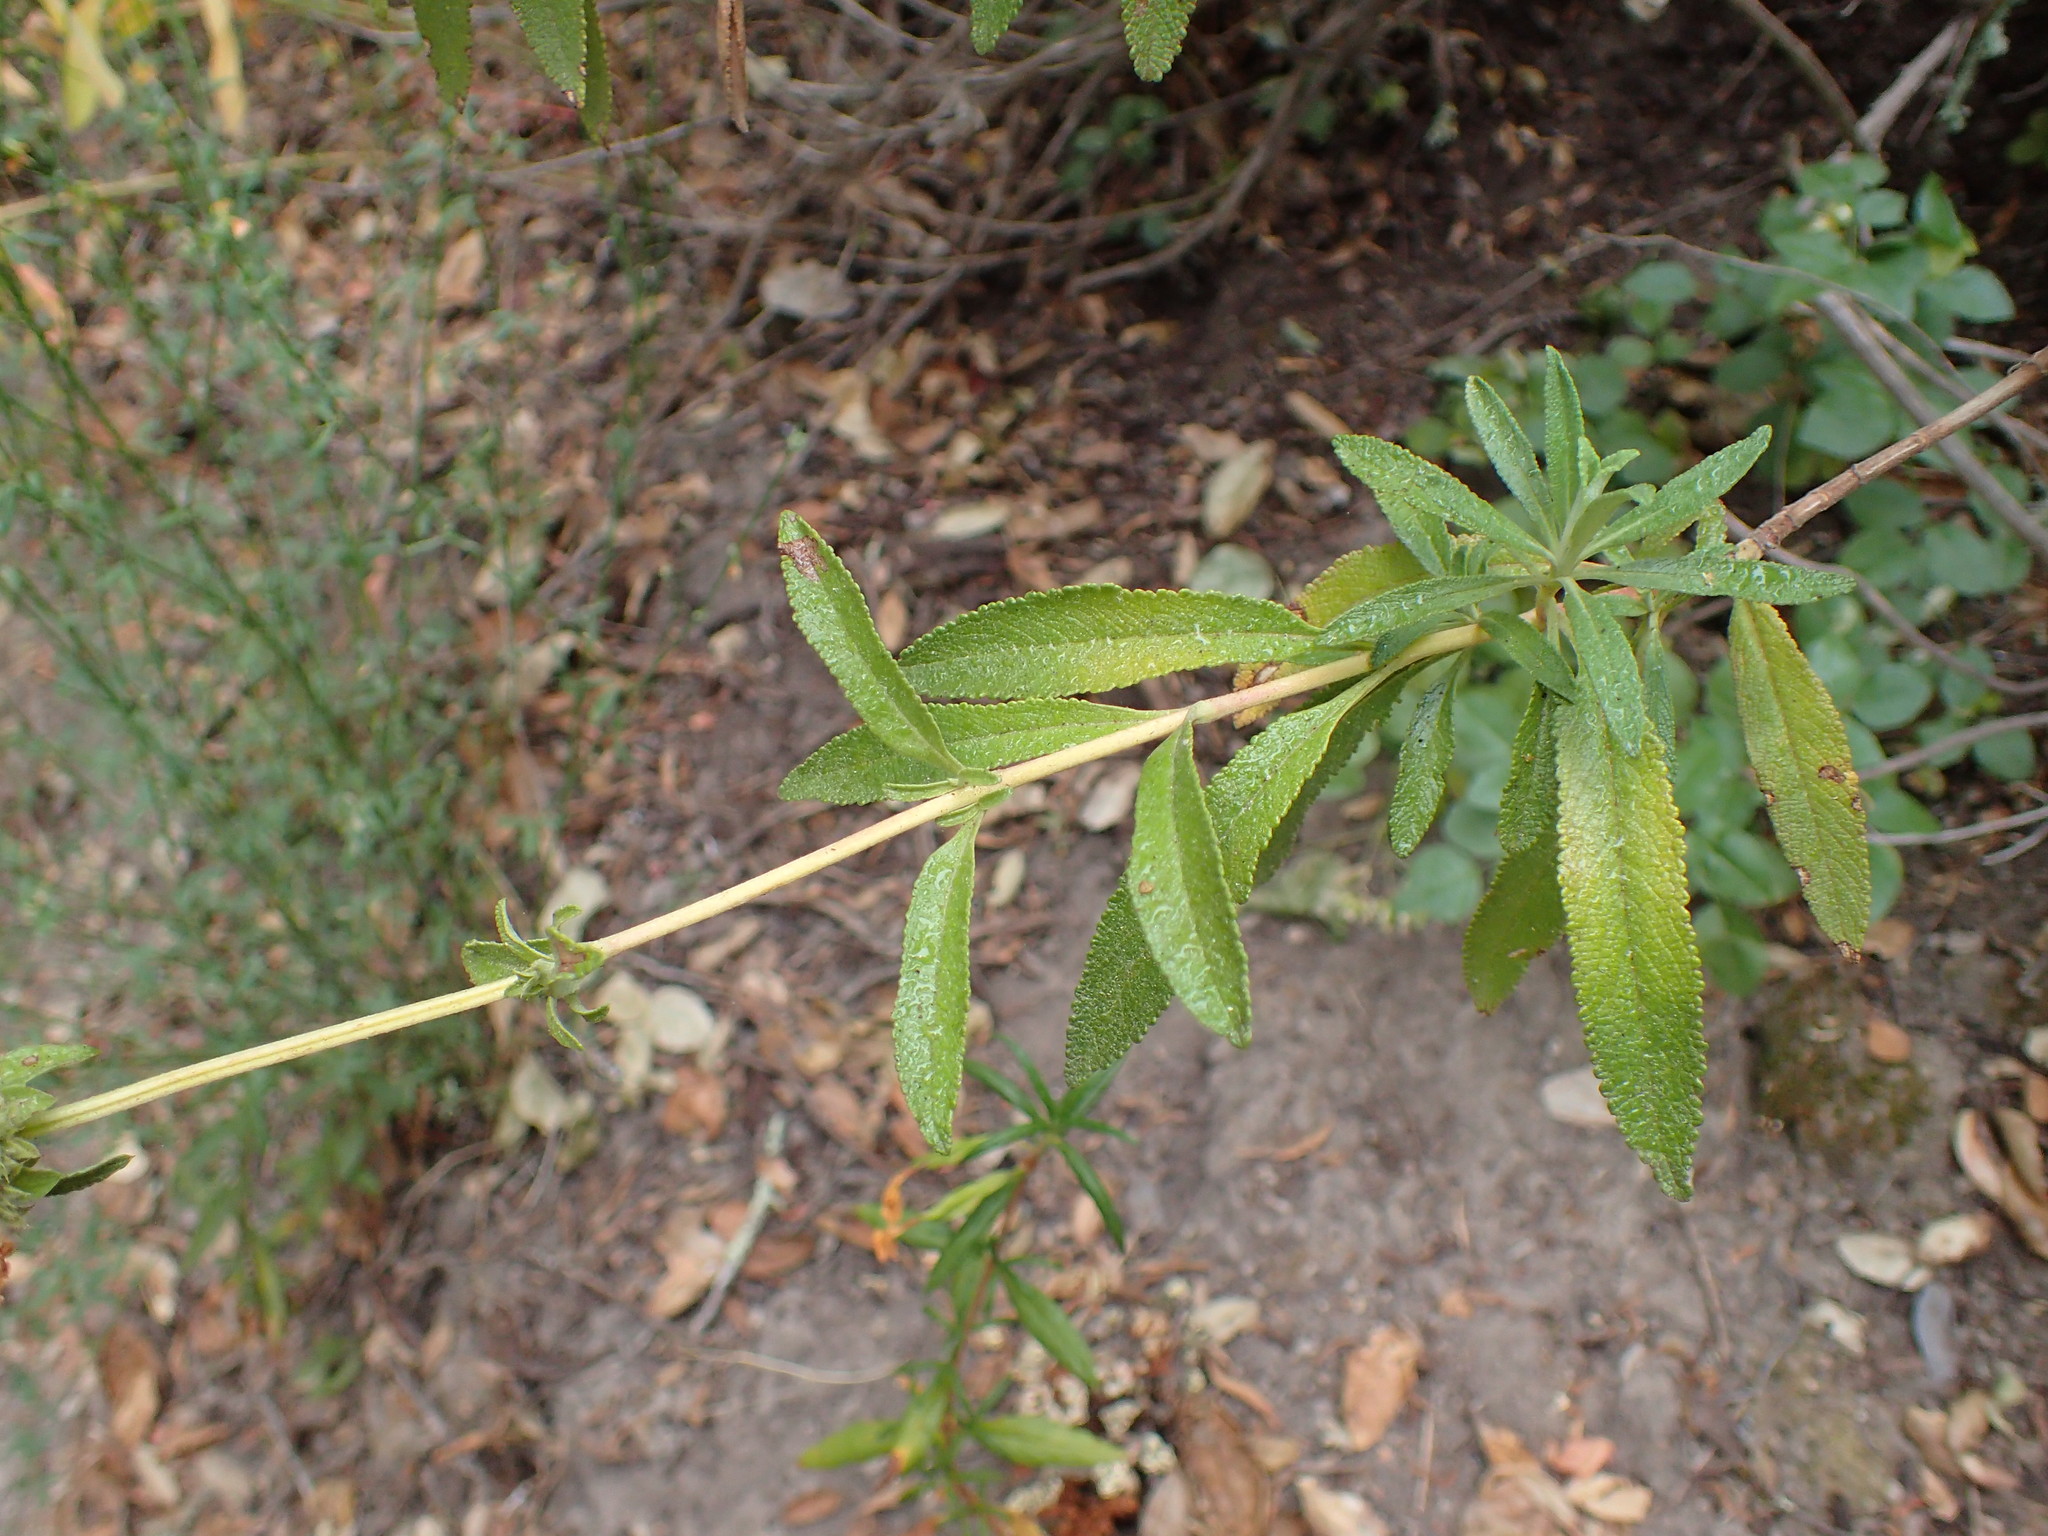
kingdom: Plantae
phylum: Tracheophyta
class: Magnoliopsida
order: Lamiales
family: Lamiaceae
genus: Salvia
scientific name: Salvia mellifera
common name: Black sage
